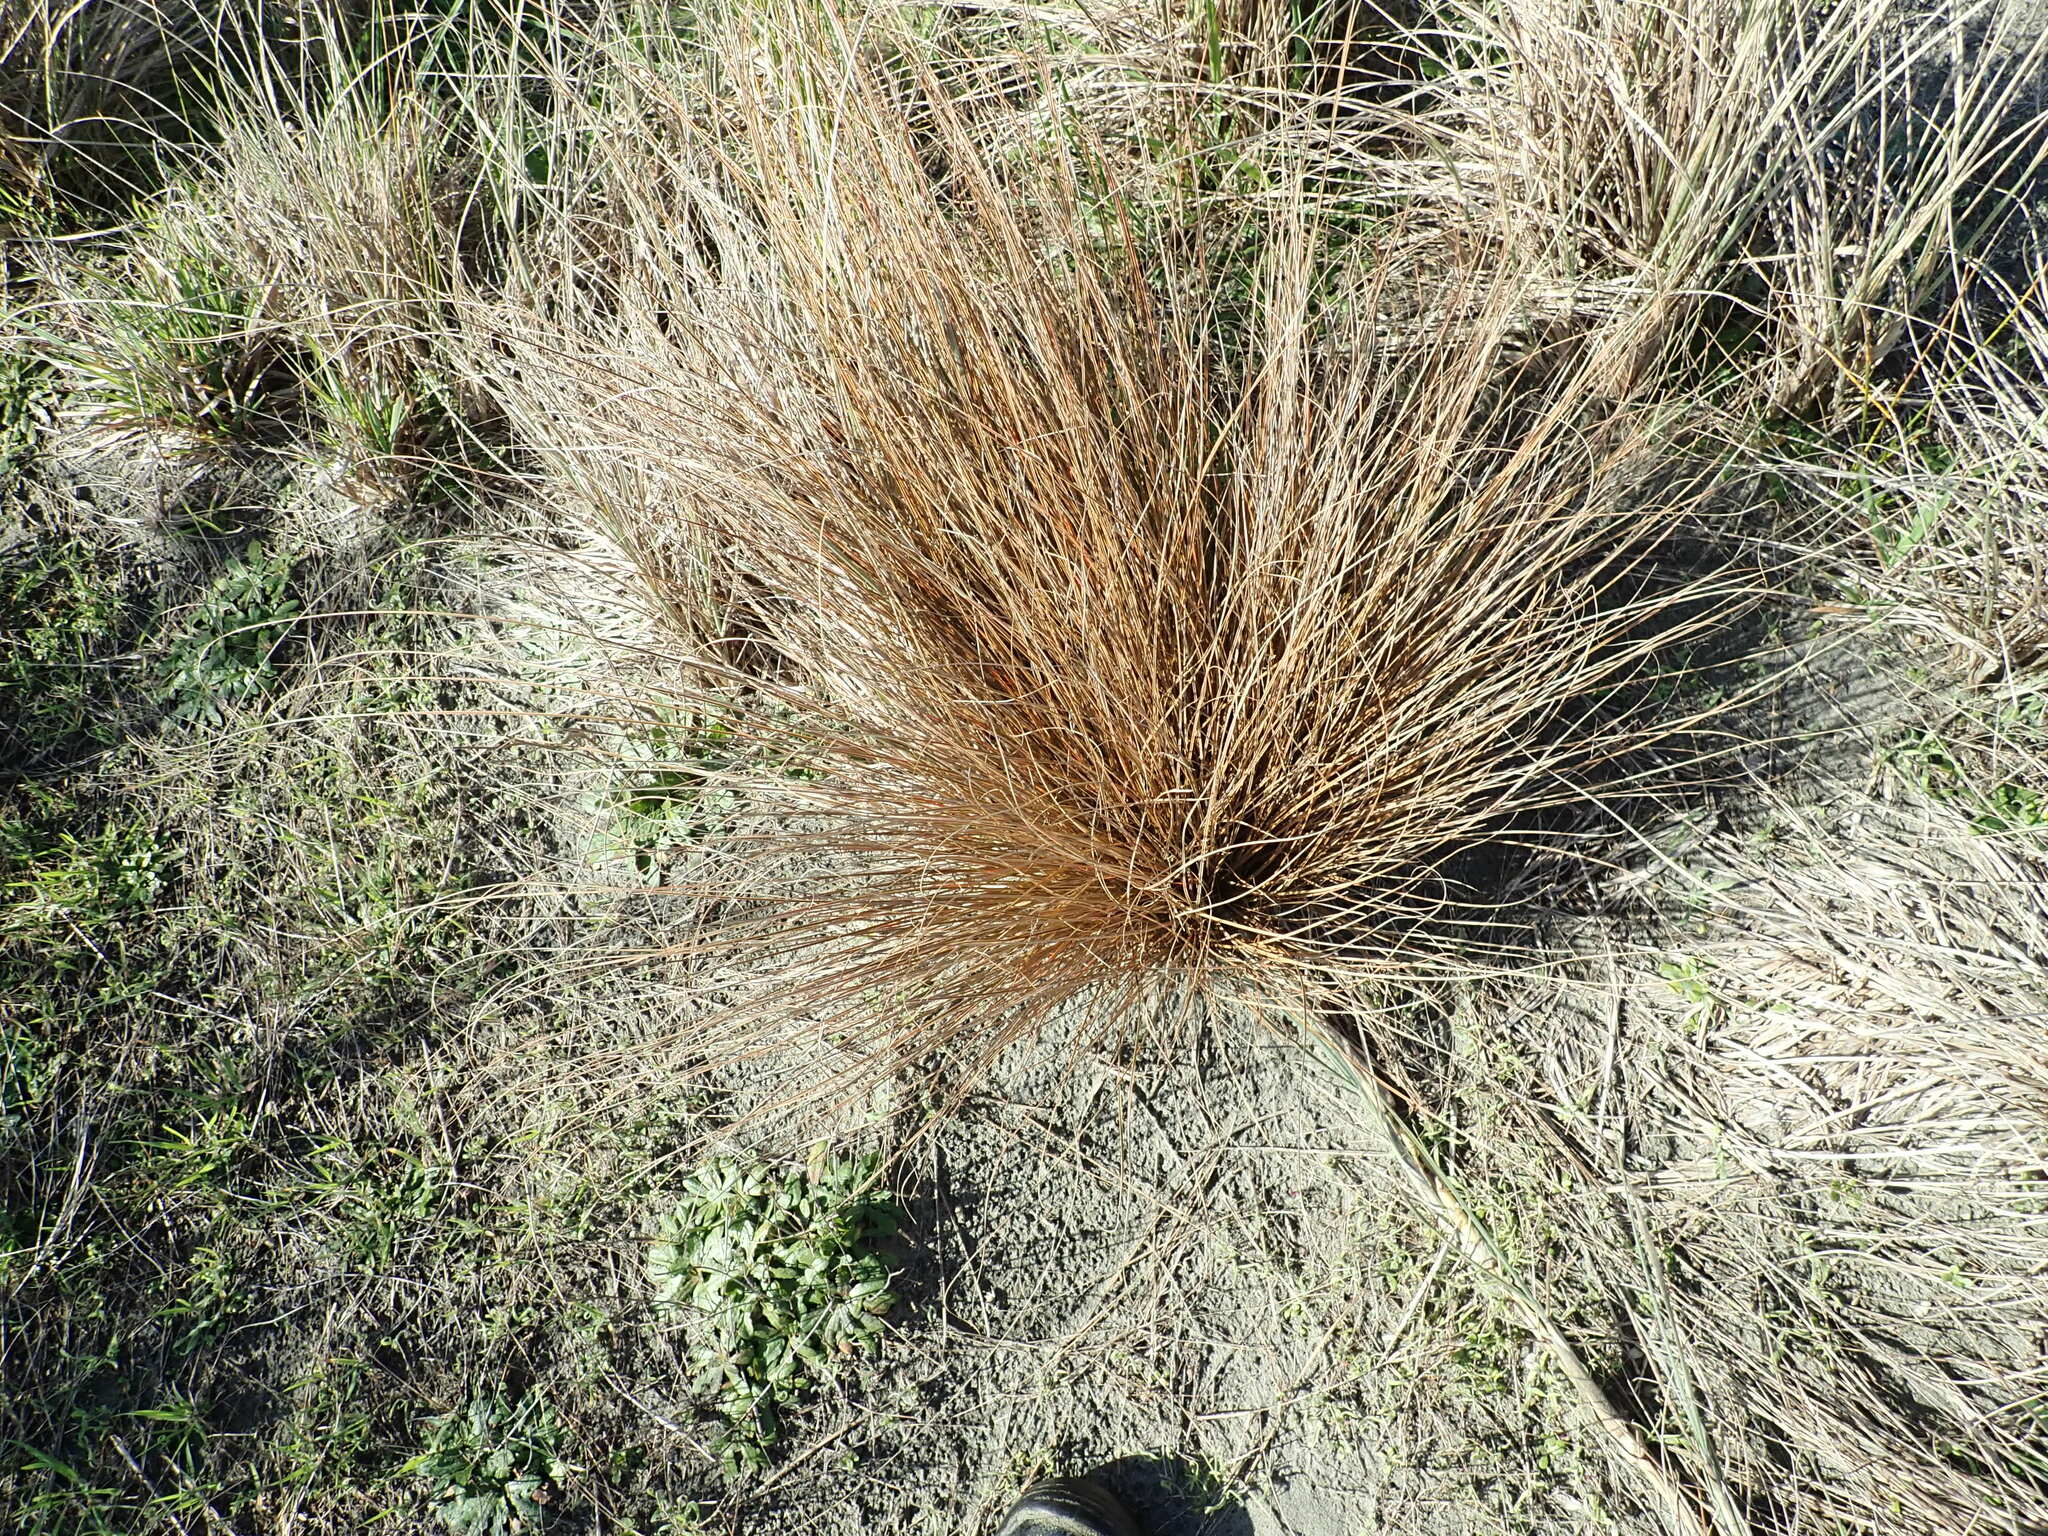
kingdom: Plantae
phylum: Tracheophyta
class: Liliopsida
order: Poales
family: Cyperaceae
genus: Carex
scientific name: Carex testacea
